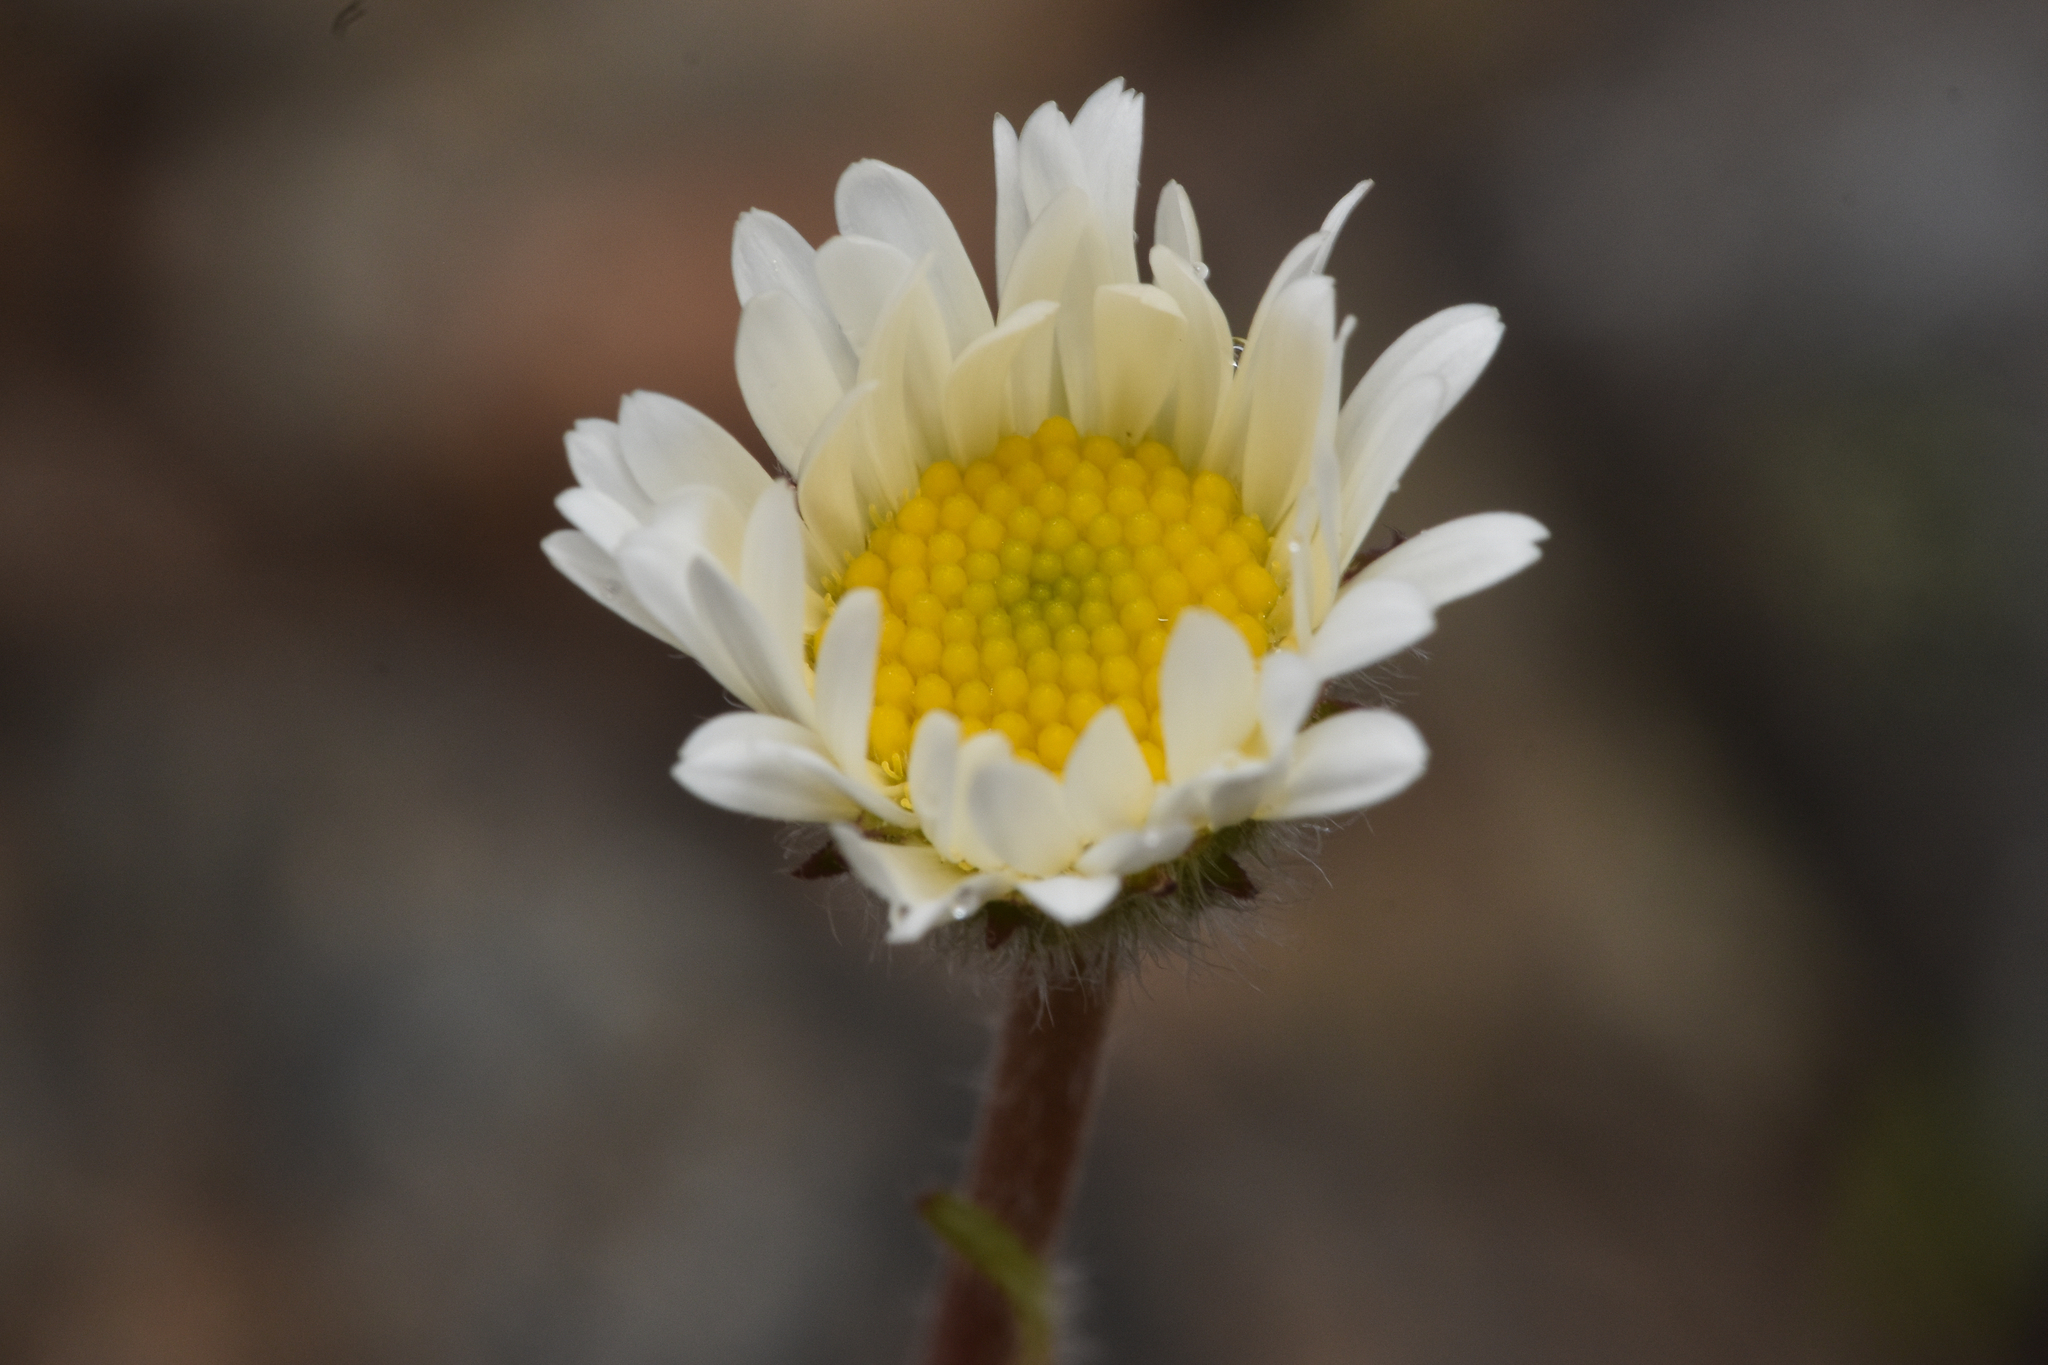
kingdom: Plantae
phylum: Tracheophyta
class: Magnoliopsida
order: Asterales
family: Asteraceae
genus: Erigeron
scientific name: Erigeron compositus
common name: Dwarf mountain fleabane
